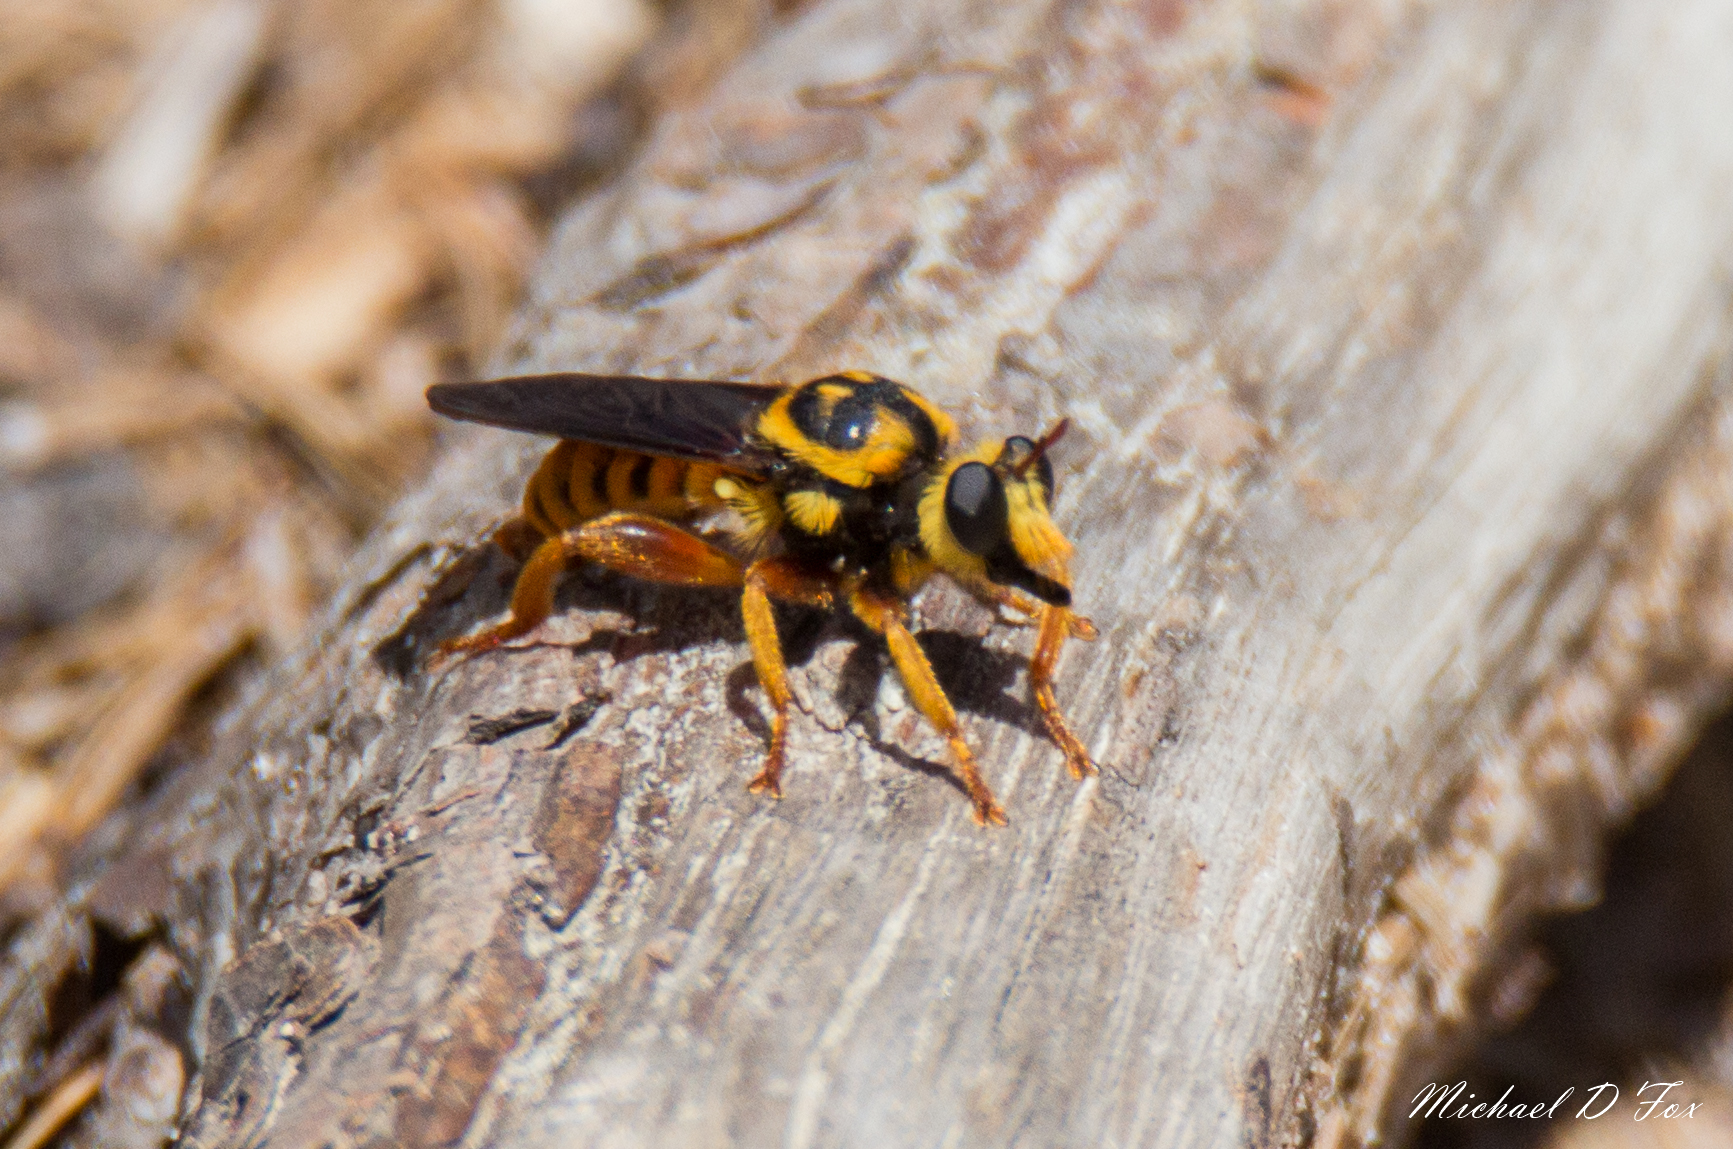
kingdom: Animalia
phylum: Arthropoda
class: Insecta
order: Diptera
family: Asilidae
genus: Laphria
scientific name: Laphria saffrana
